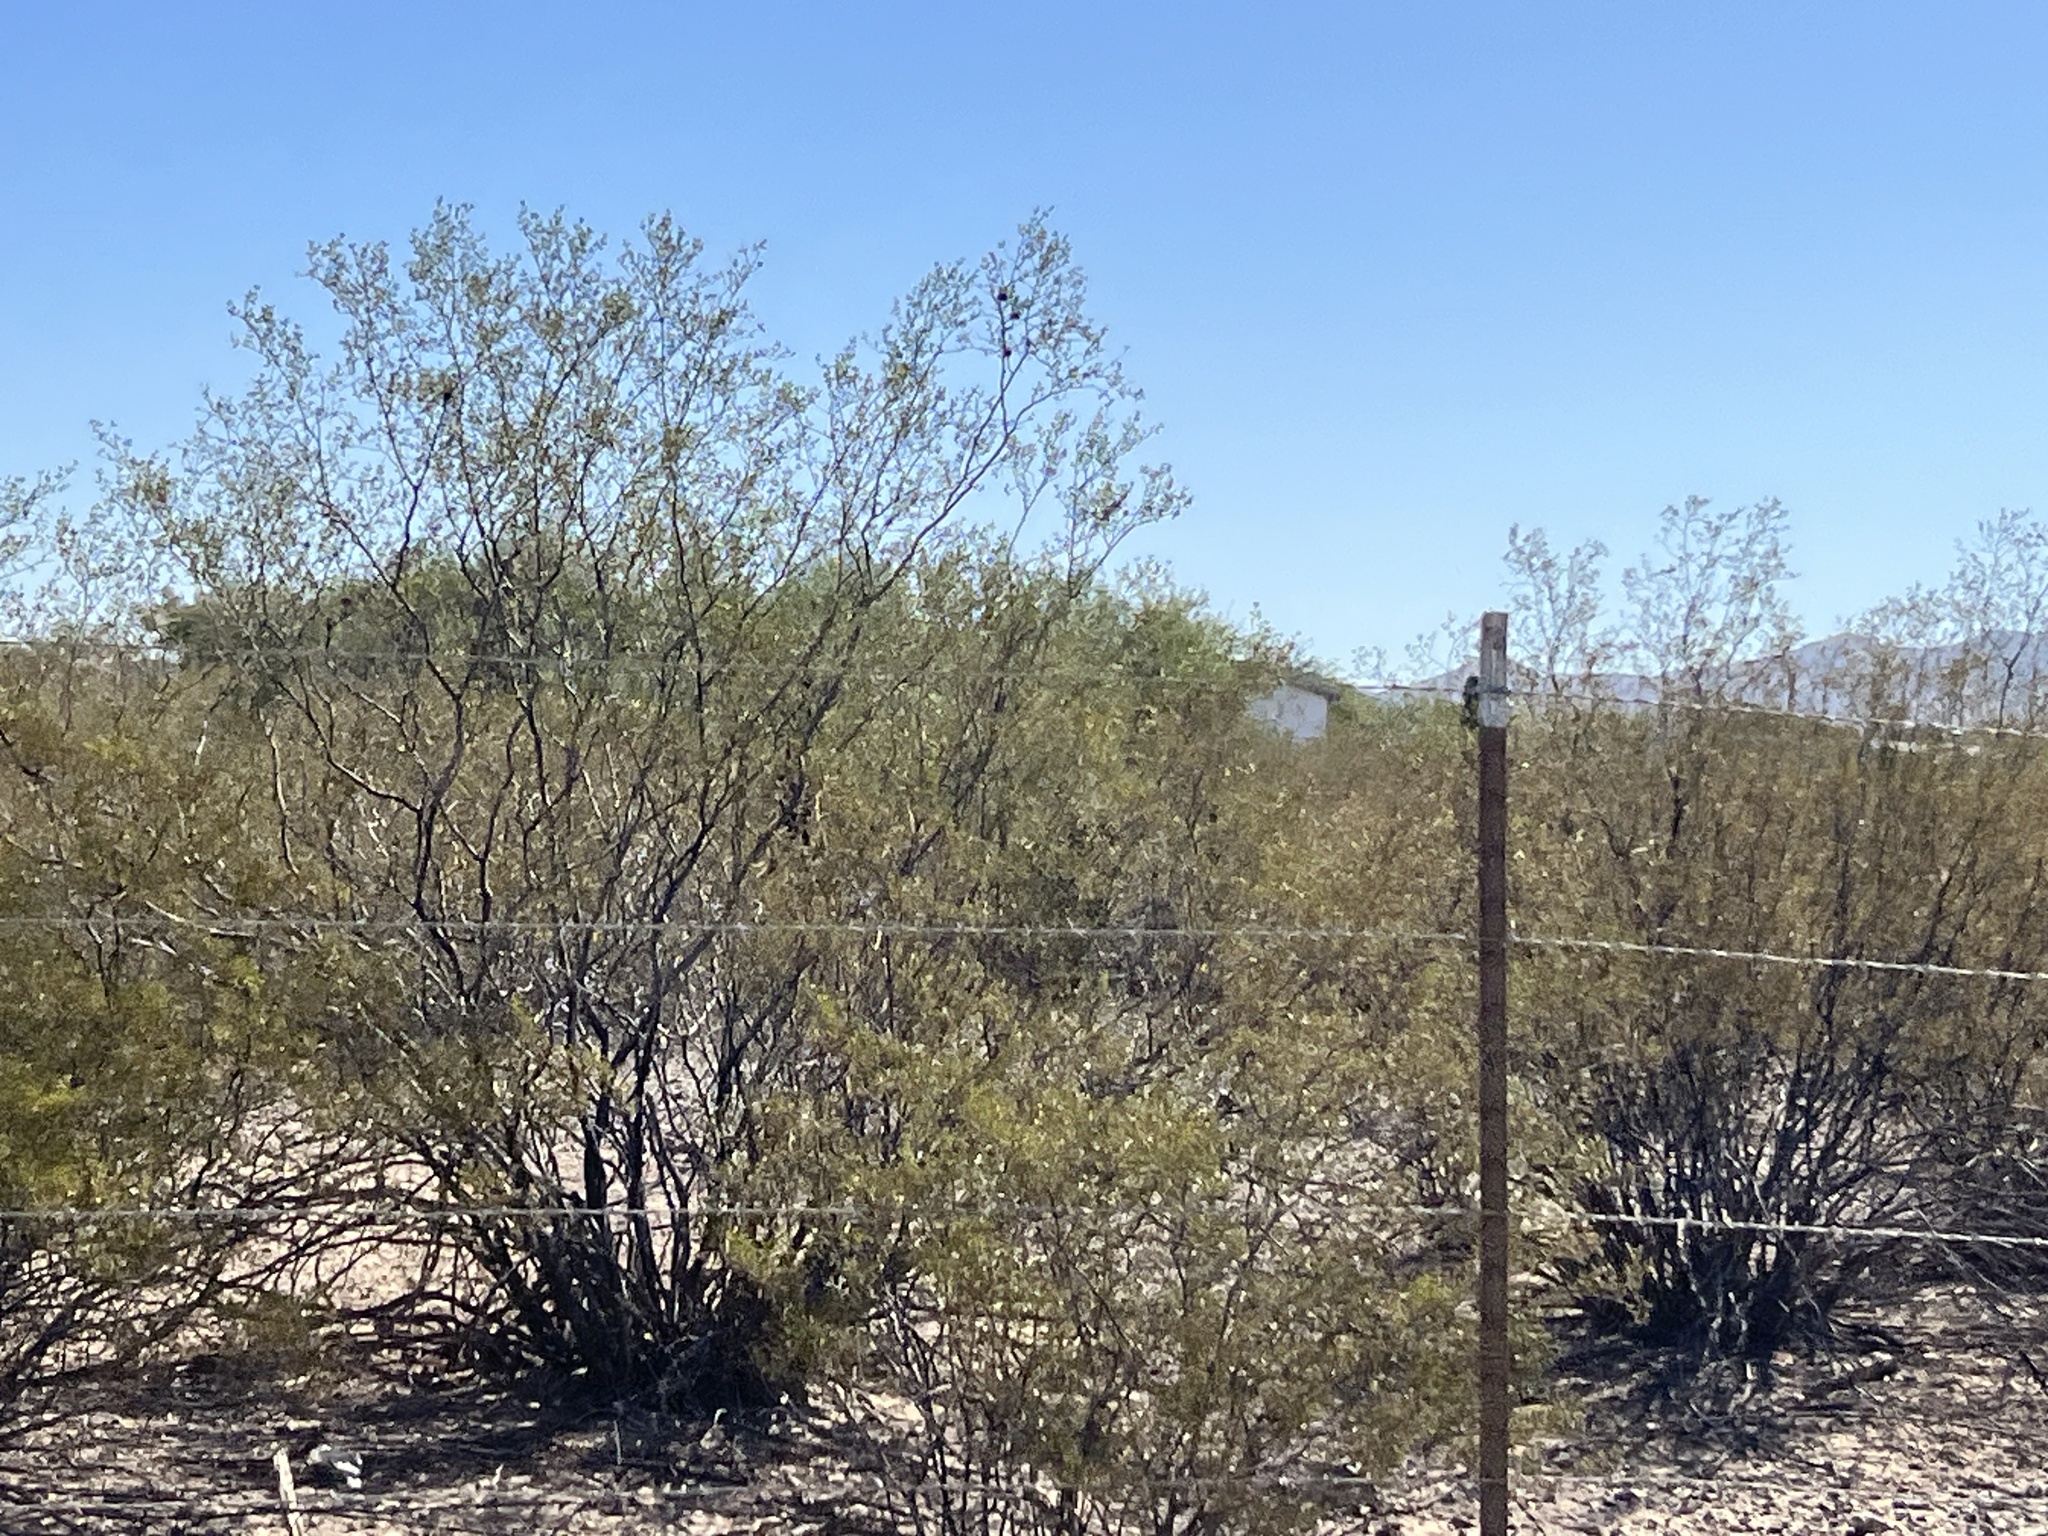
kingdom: Plantae
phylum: Tracheophyta
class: Magnoliopsida
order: Zygophyllales
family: Zygophyllaceae
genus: Larrea
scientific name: Larrea tridentata
